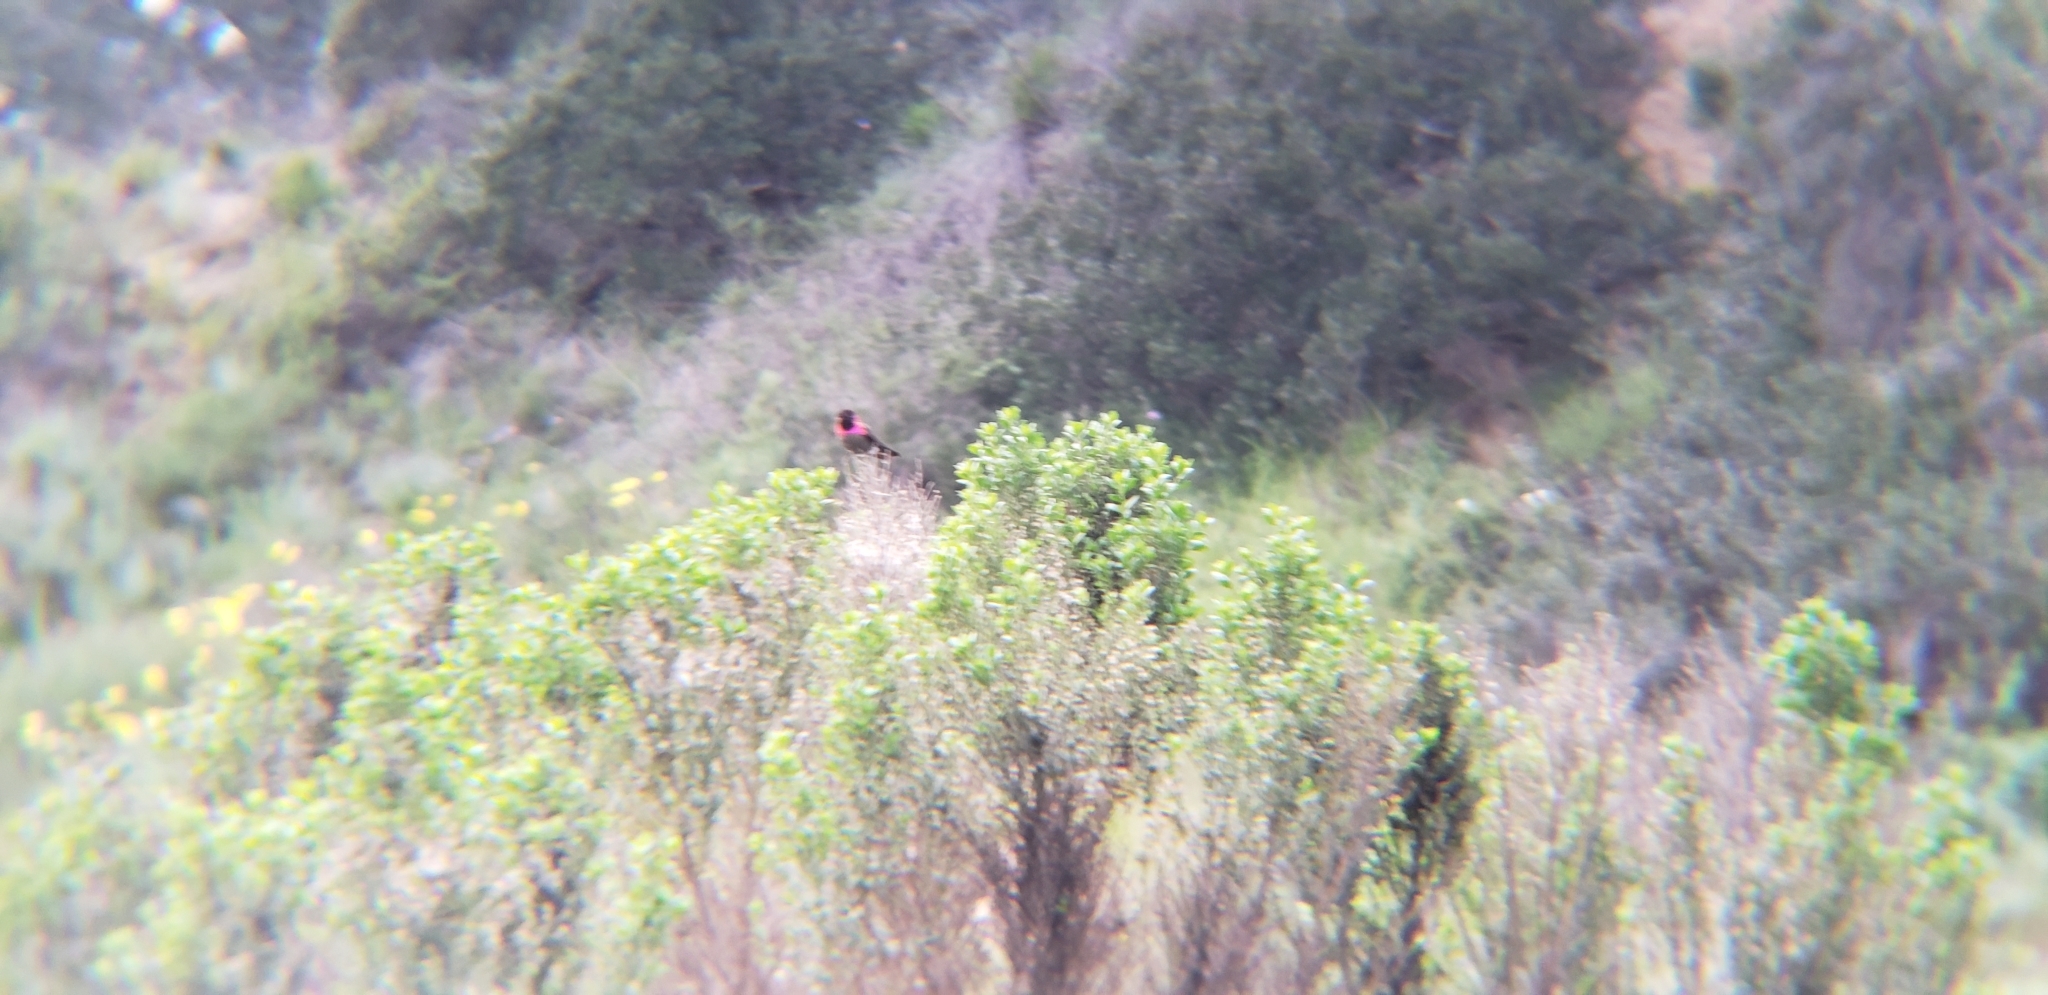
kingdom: Animalia
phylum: Chordata
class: Aves
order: Apodiformes
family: Trochilidae
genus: Calypte
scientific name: Calypte anna
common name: Anna's hummingbird
